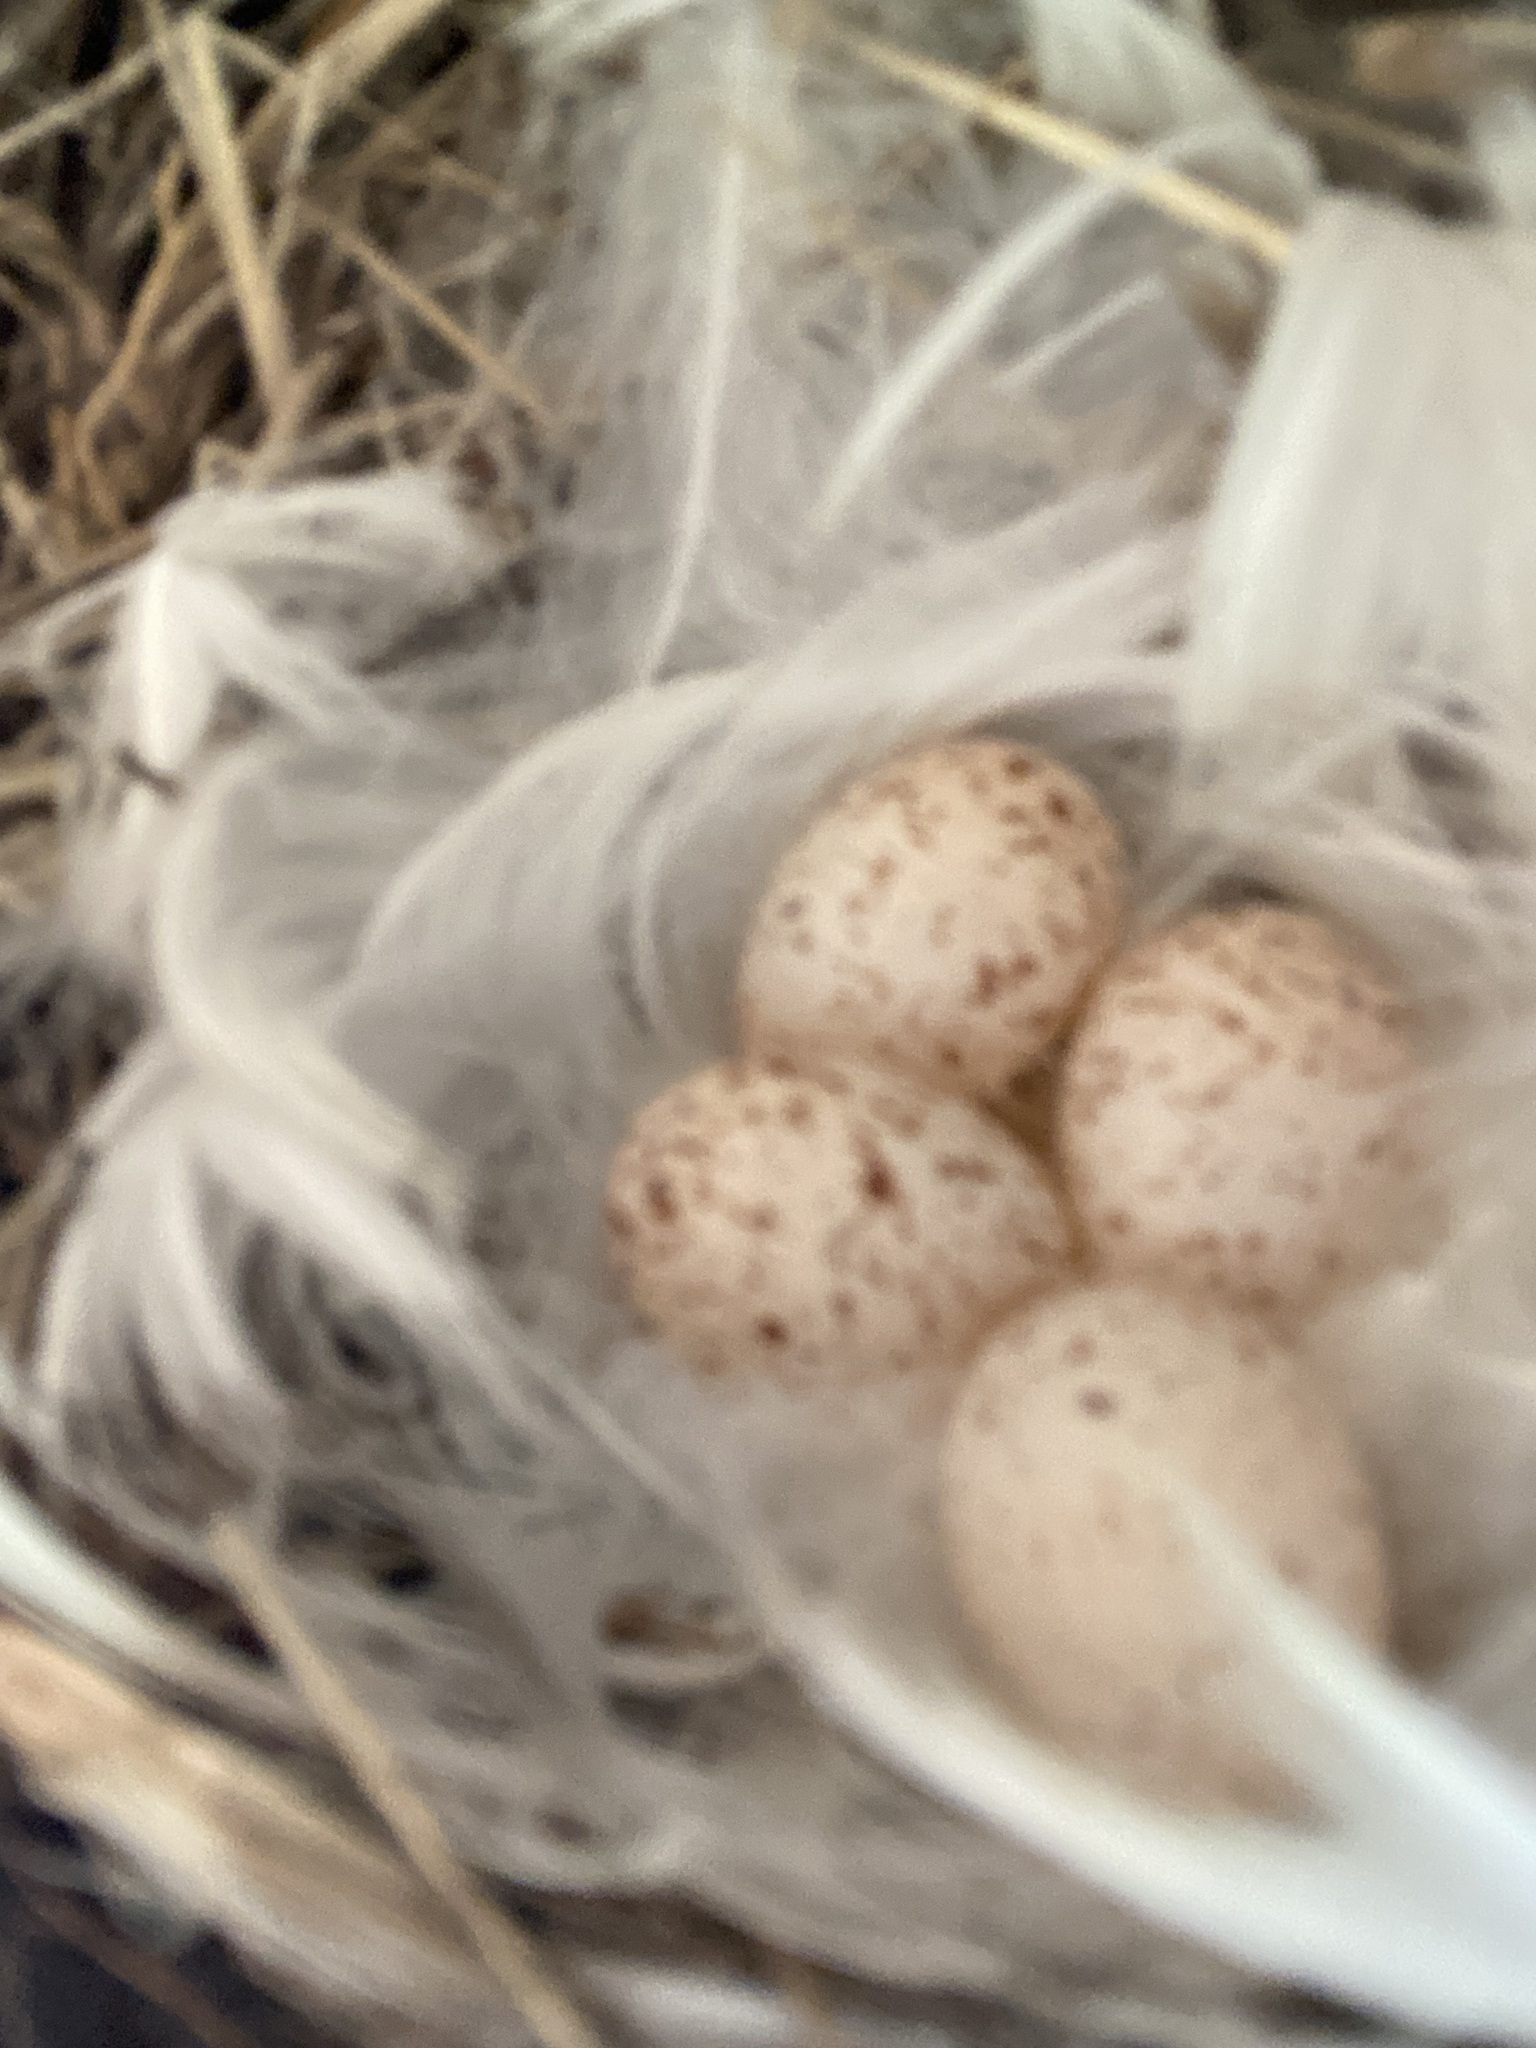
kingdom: Animalia
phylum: Chordata
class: Aves
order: Passeriformes
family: Hirundinidae
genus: Hirundo
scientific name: Hirundo rustica
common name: Barn swallow
